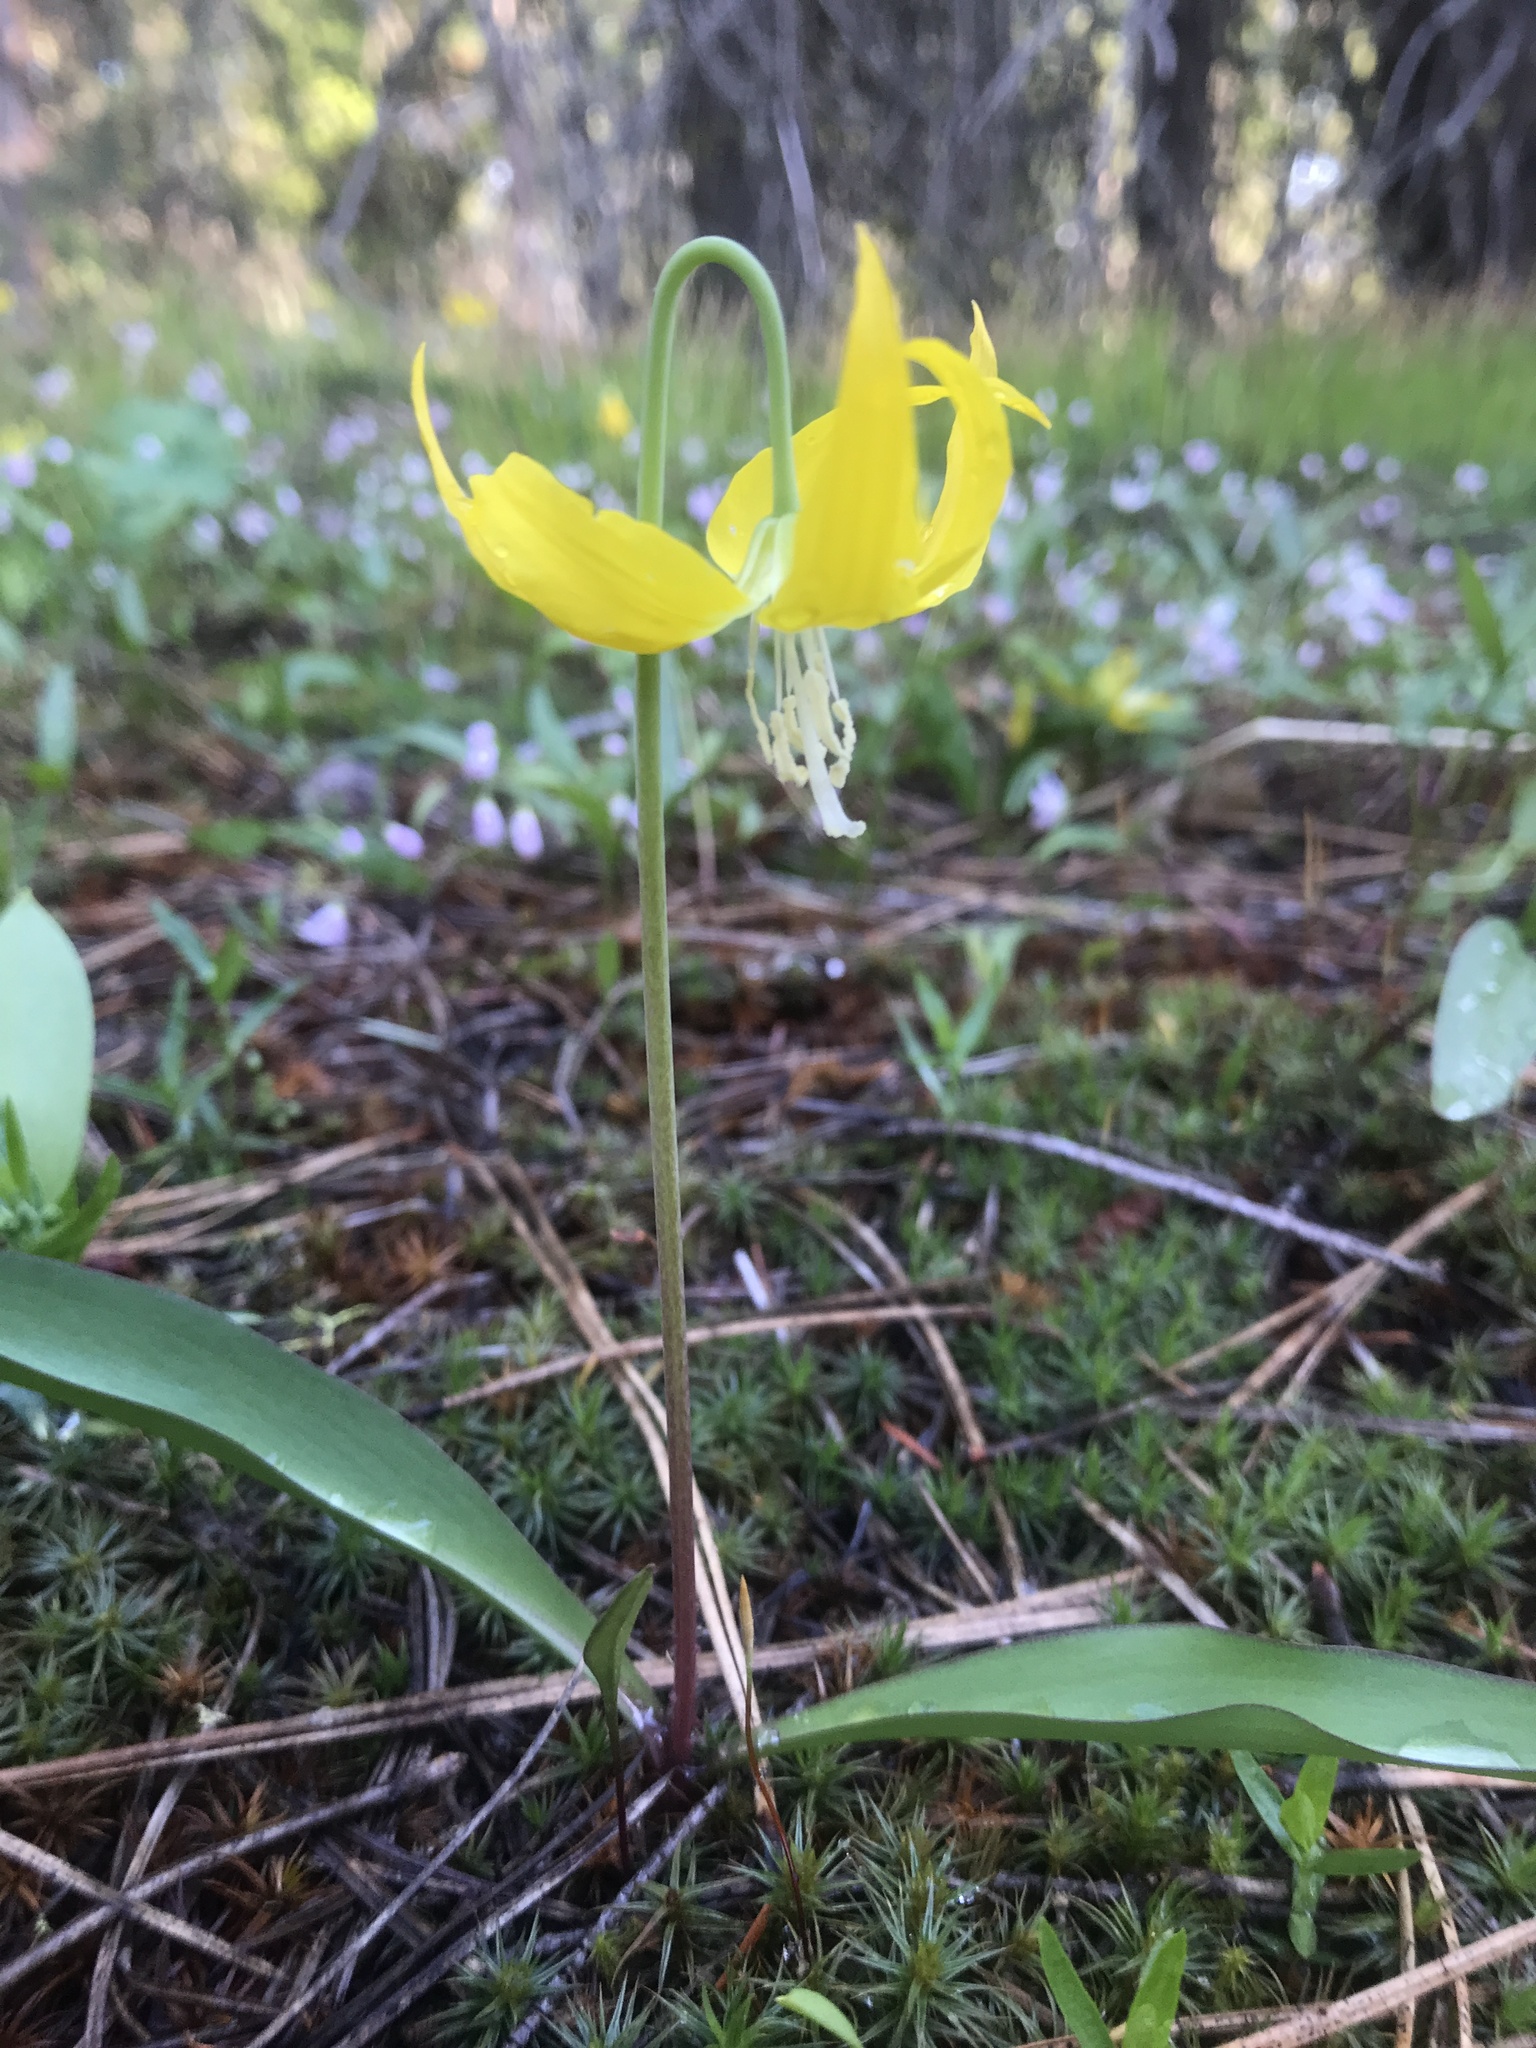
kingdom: Plantae
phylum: Tracheophyta
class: Liliopsida
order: Liliales
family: Liliaceae
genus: Erythronium
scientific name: Erythronium grandiflorum
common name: Avalanche-lily
